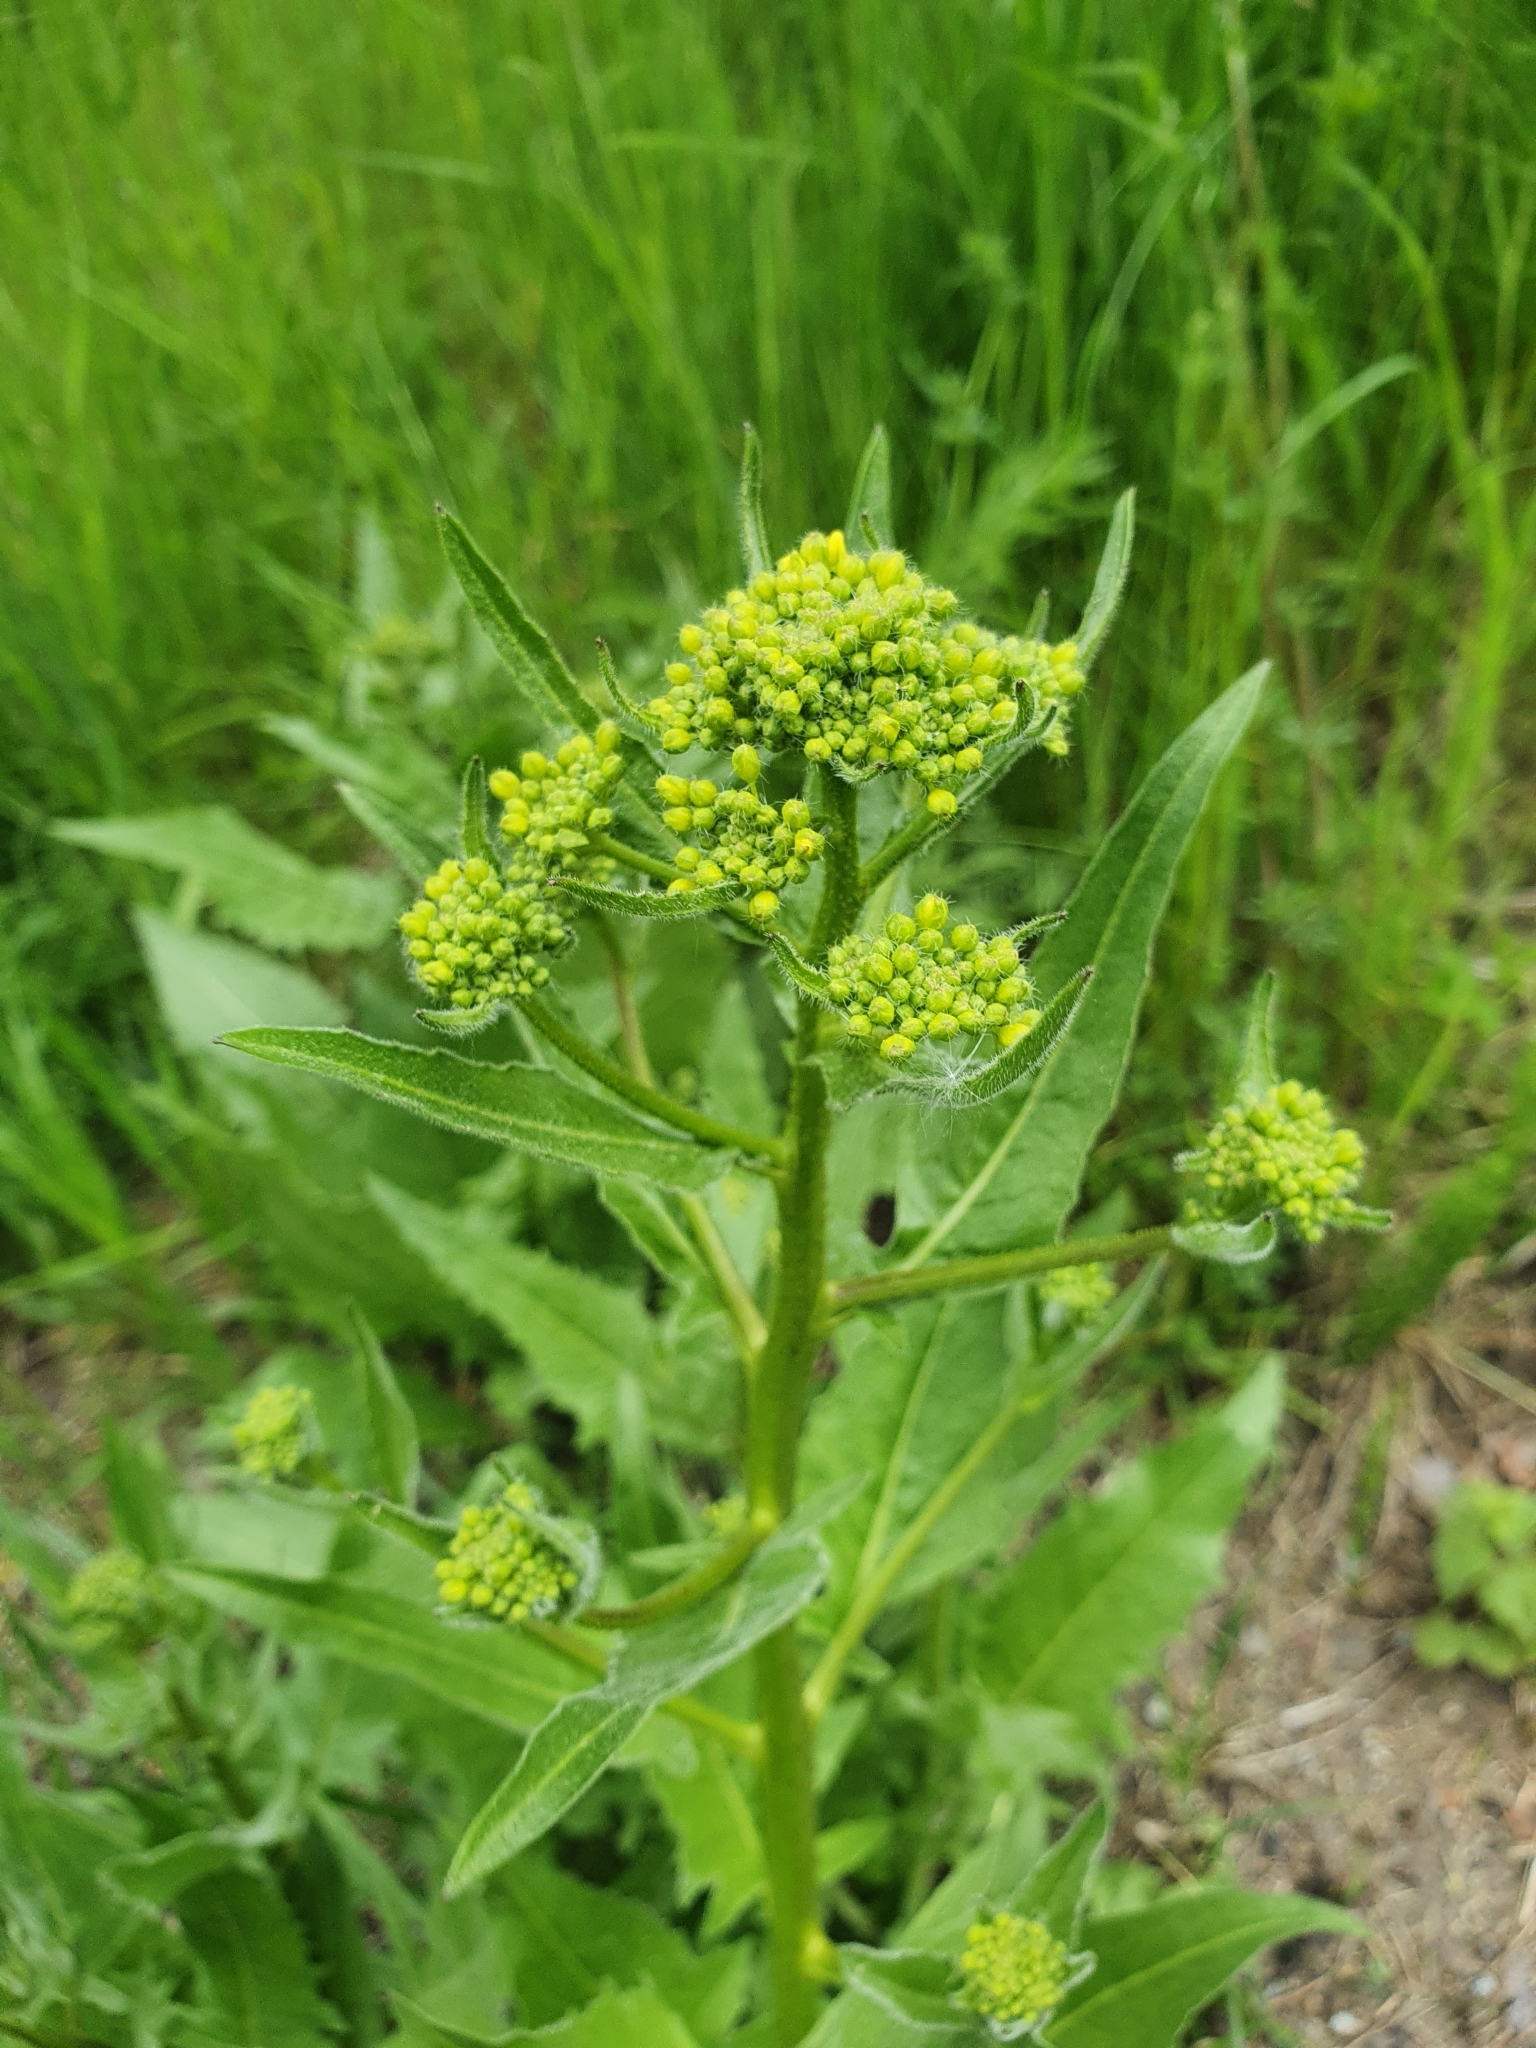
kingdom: Plantae
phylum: Tracheophyta
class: Magnoliopsida
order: Brassicales
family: Brassicaceae
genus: Bunias
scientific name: Bunias orientalis
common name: Warty-cabbage
